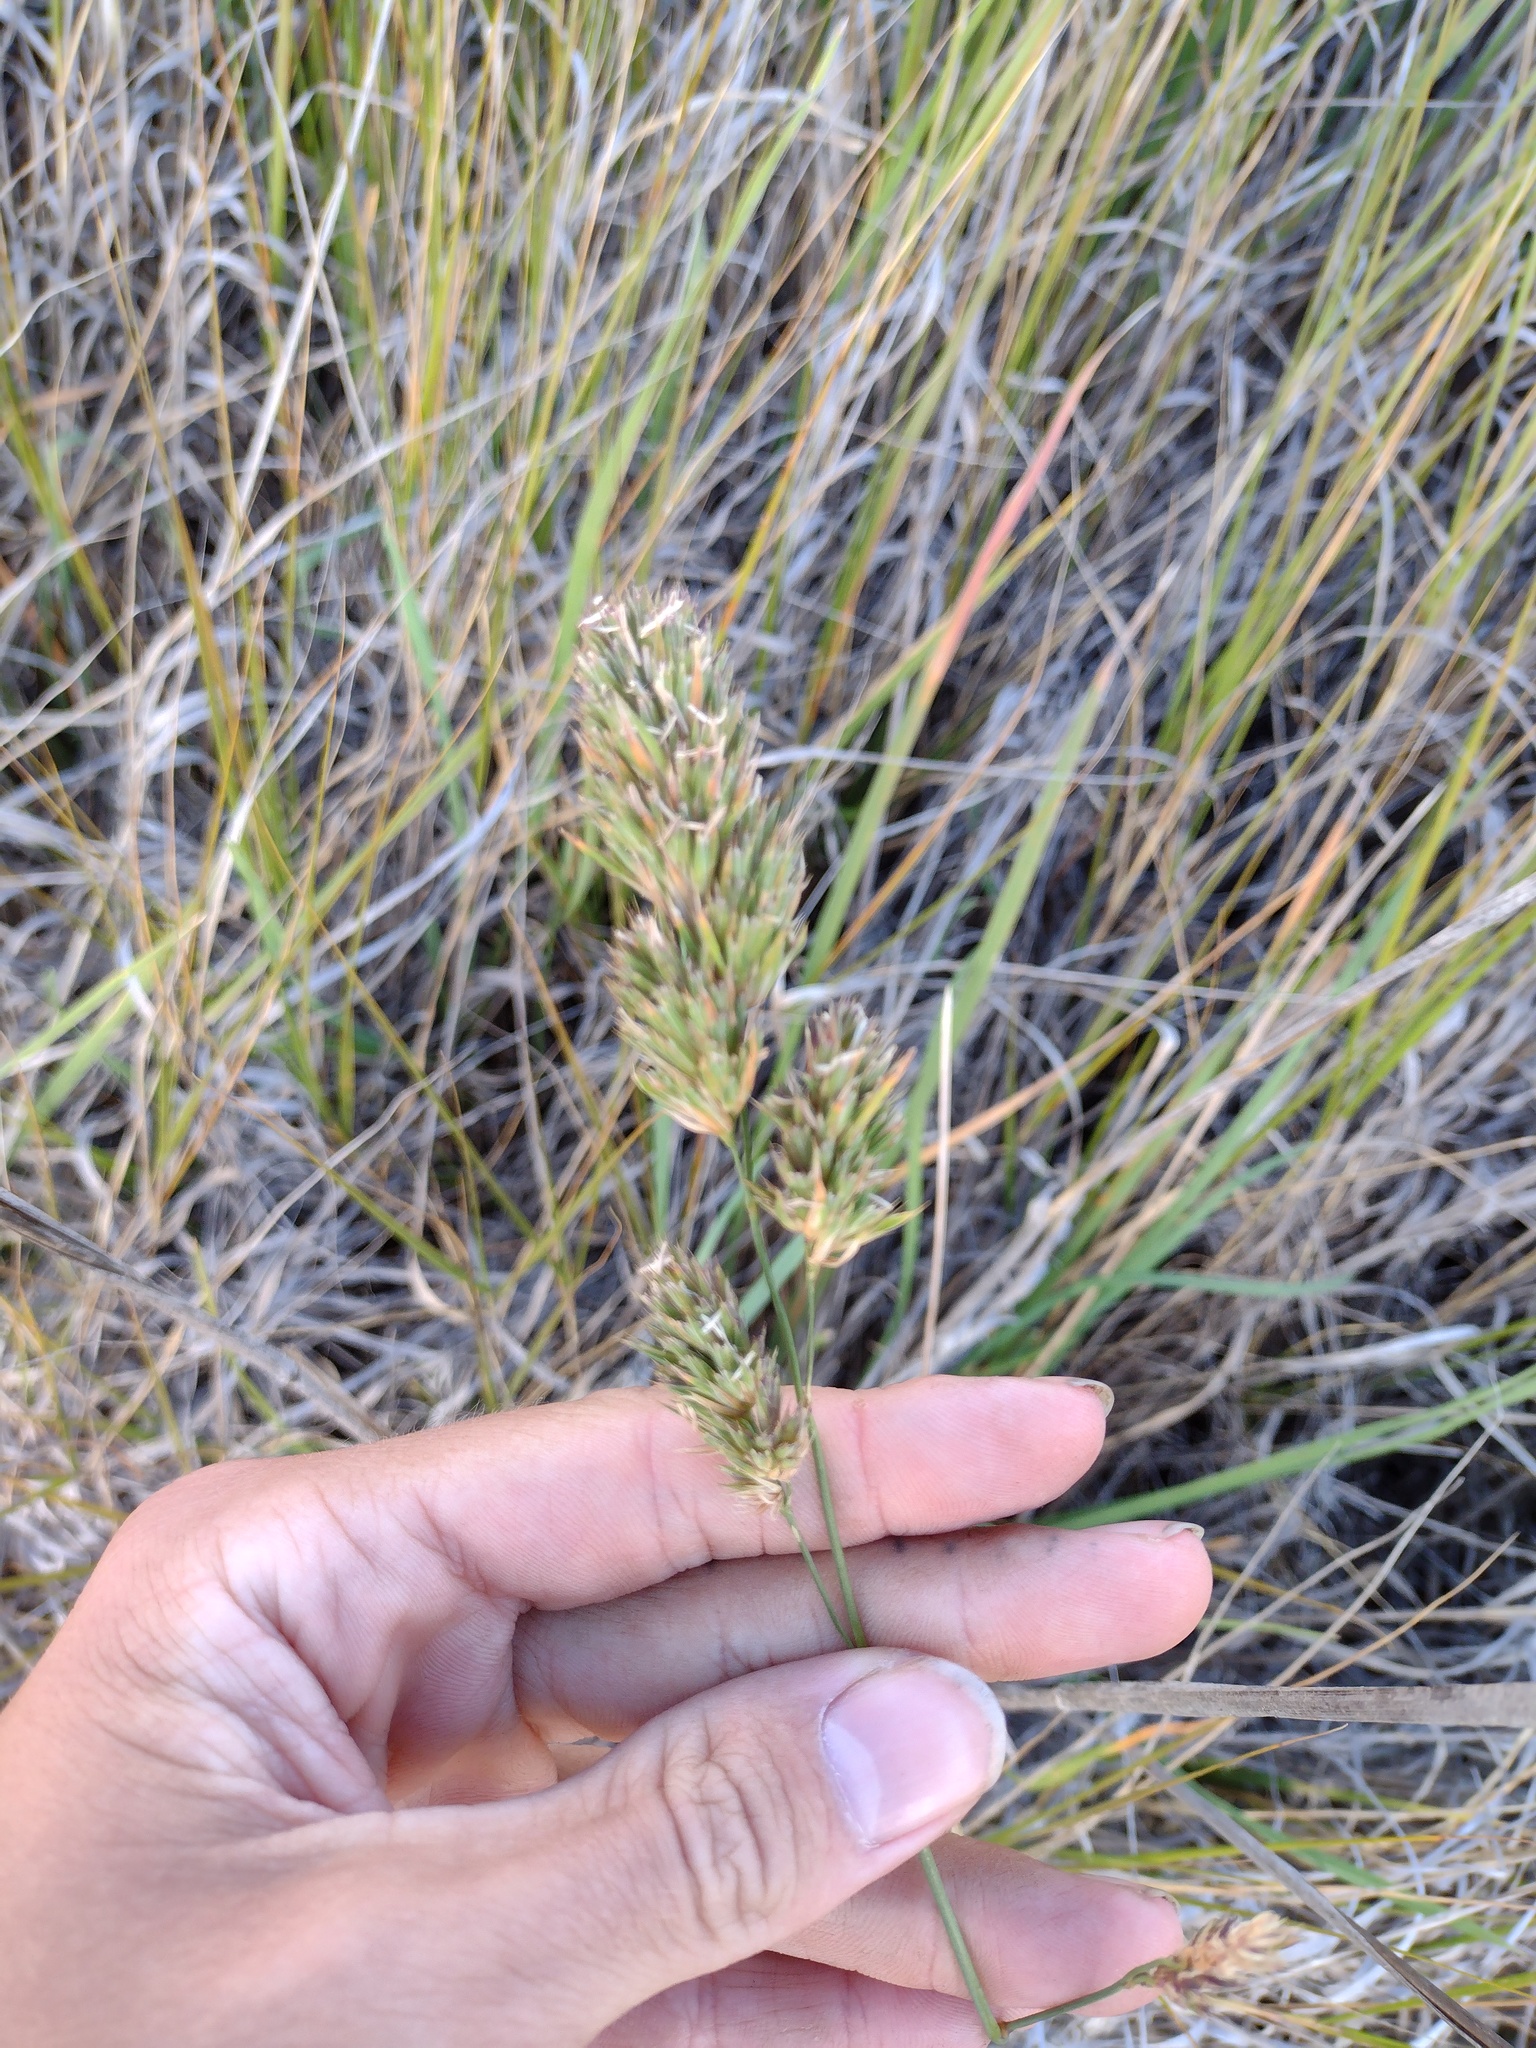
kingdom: Plantae
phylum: Tracheophyta
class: Liliopsida
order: Poales
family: Poaceae
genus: Dactylis
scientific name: Dactylis glomerata
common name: Orchardgrass
